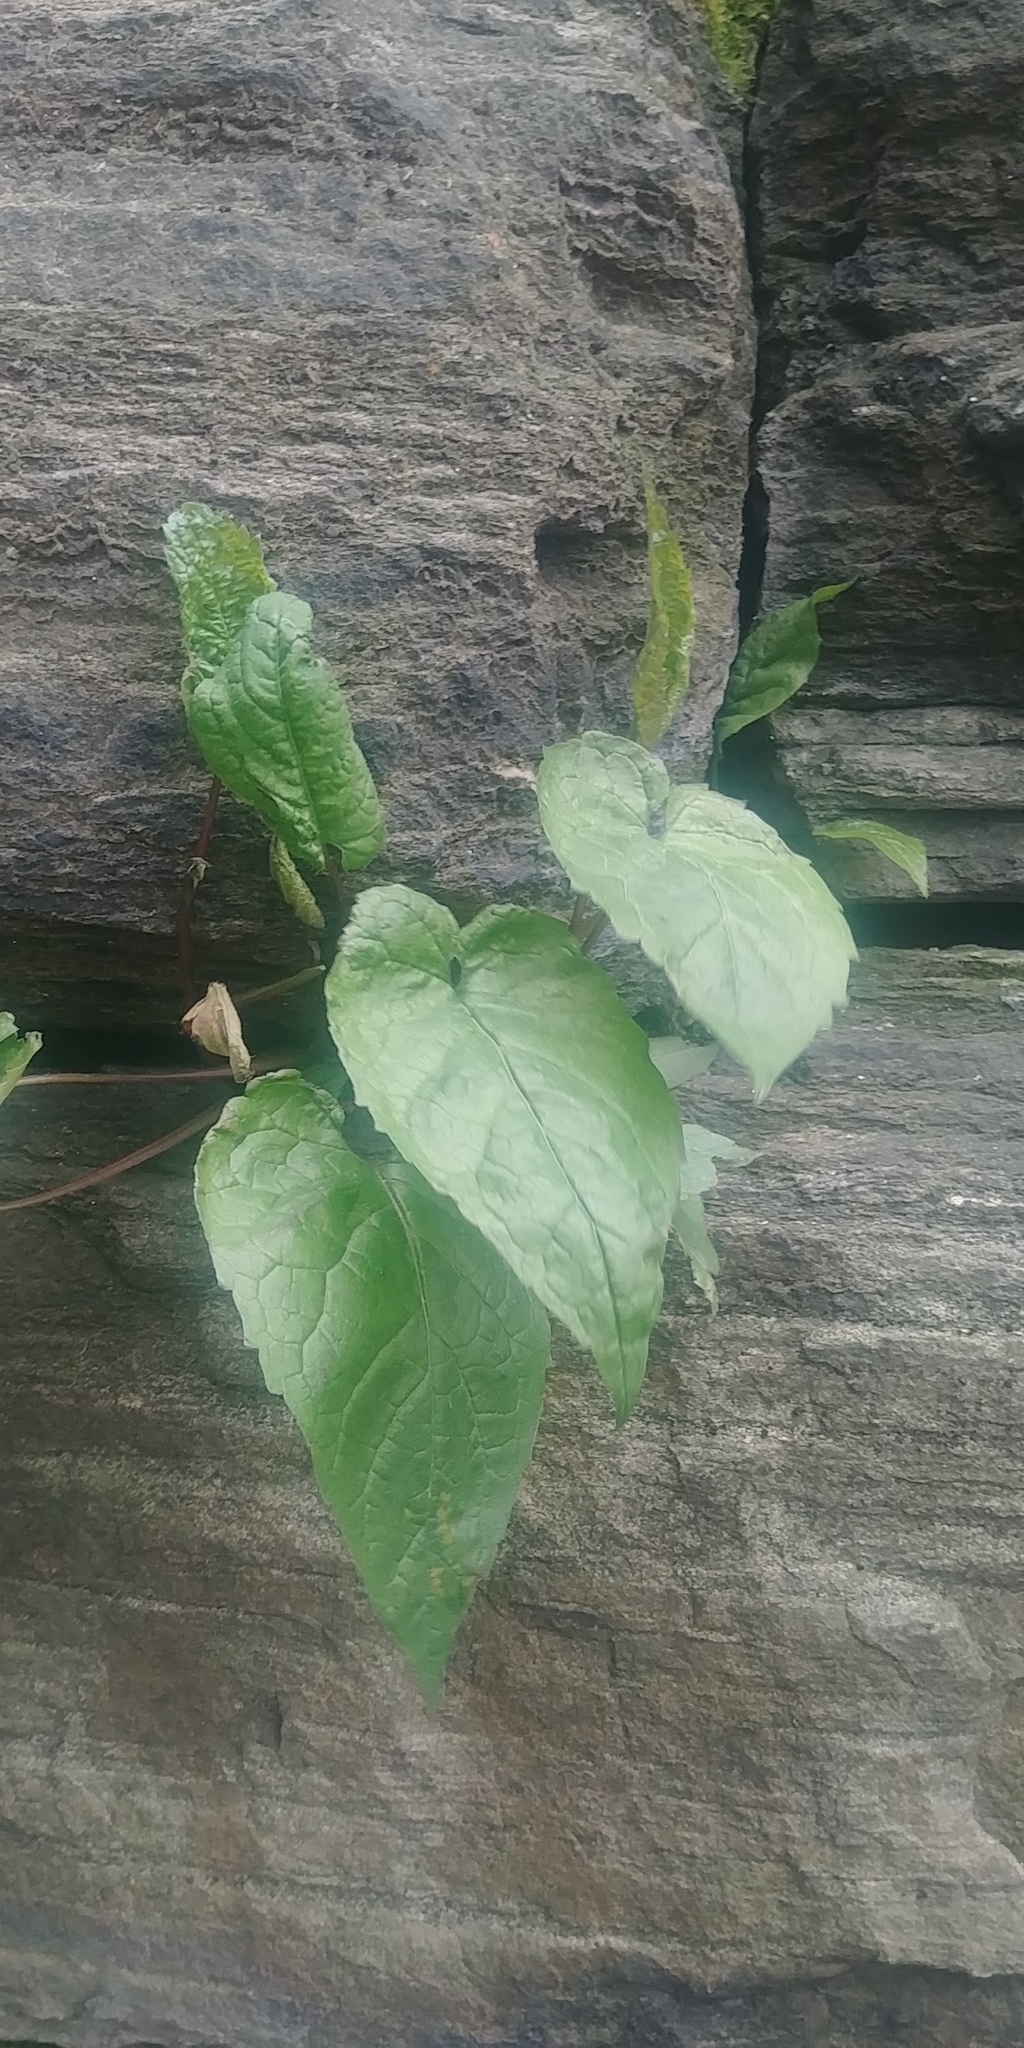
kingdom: Plantae
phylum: Tracheophyta
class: Magnoliopsida
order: Asterales
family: Asteraceae
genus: Eurybia
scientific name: Eurybia divaricata
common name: White wood aster
